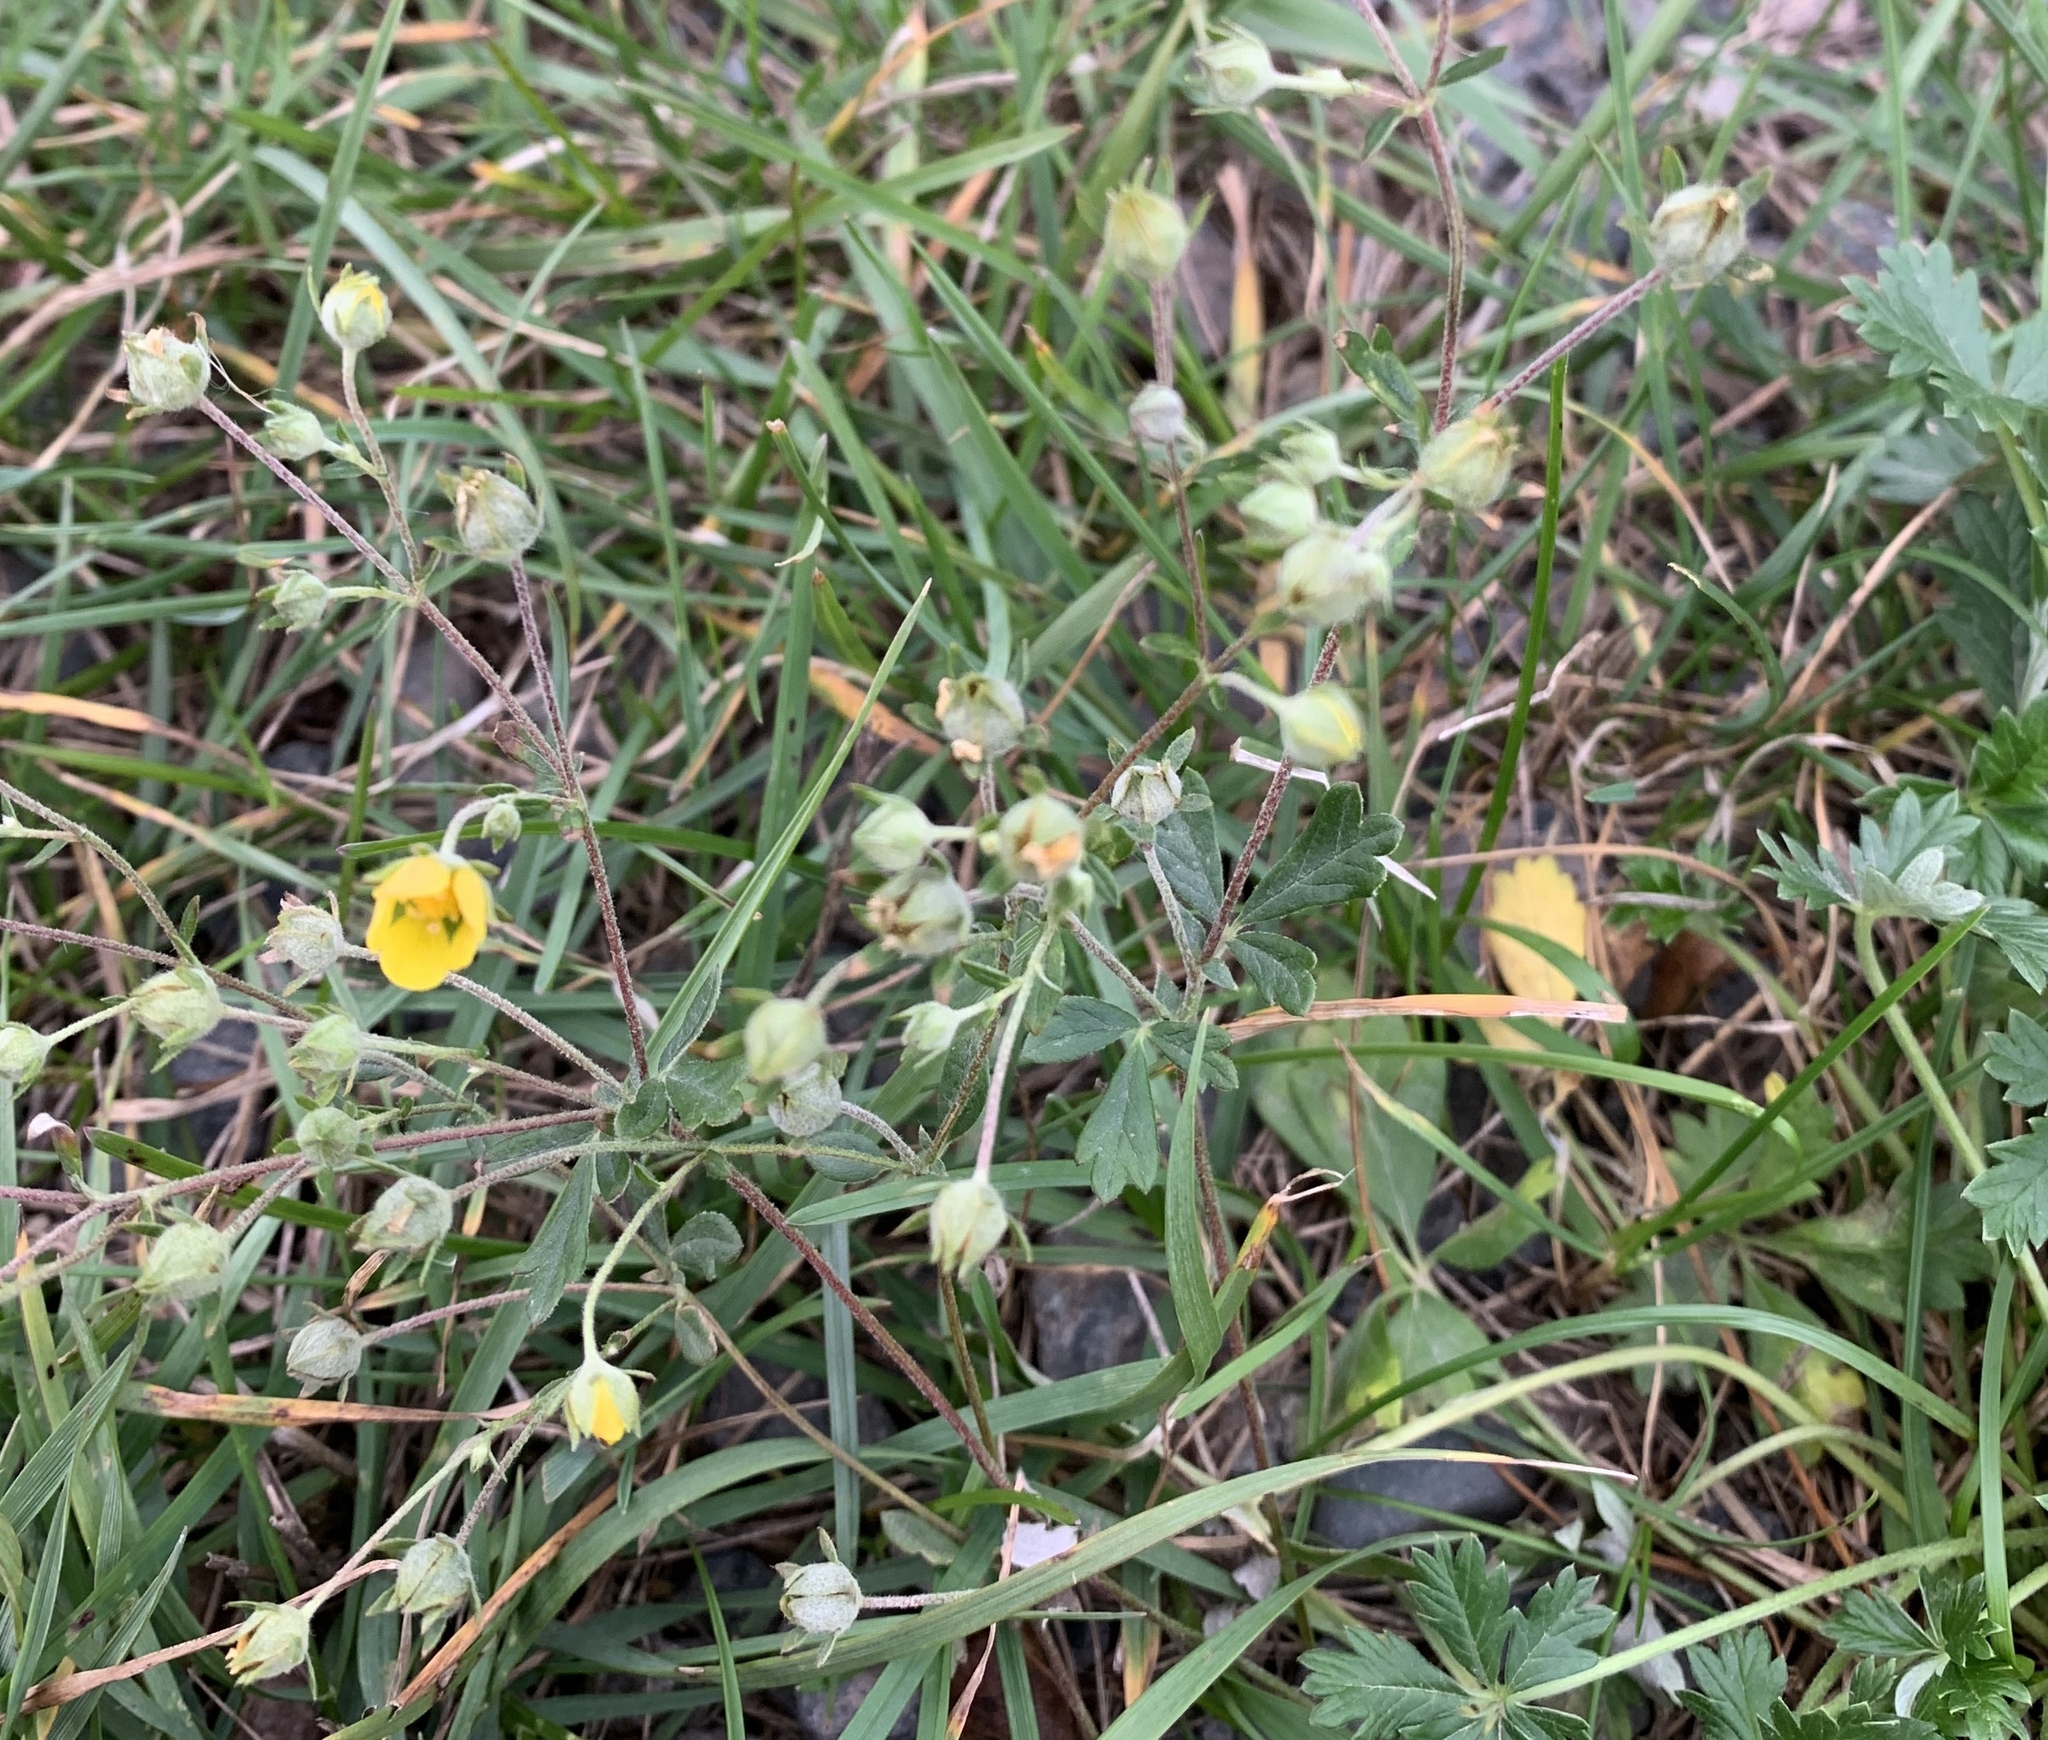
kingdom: Plantae
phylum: Tracheophyta
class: Magnoliopsida
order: Rosales
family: Rosaceae
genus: Potentilla
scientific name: Potentilla argentea
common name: Hoary cinquefoil
